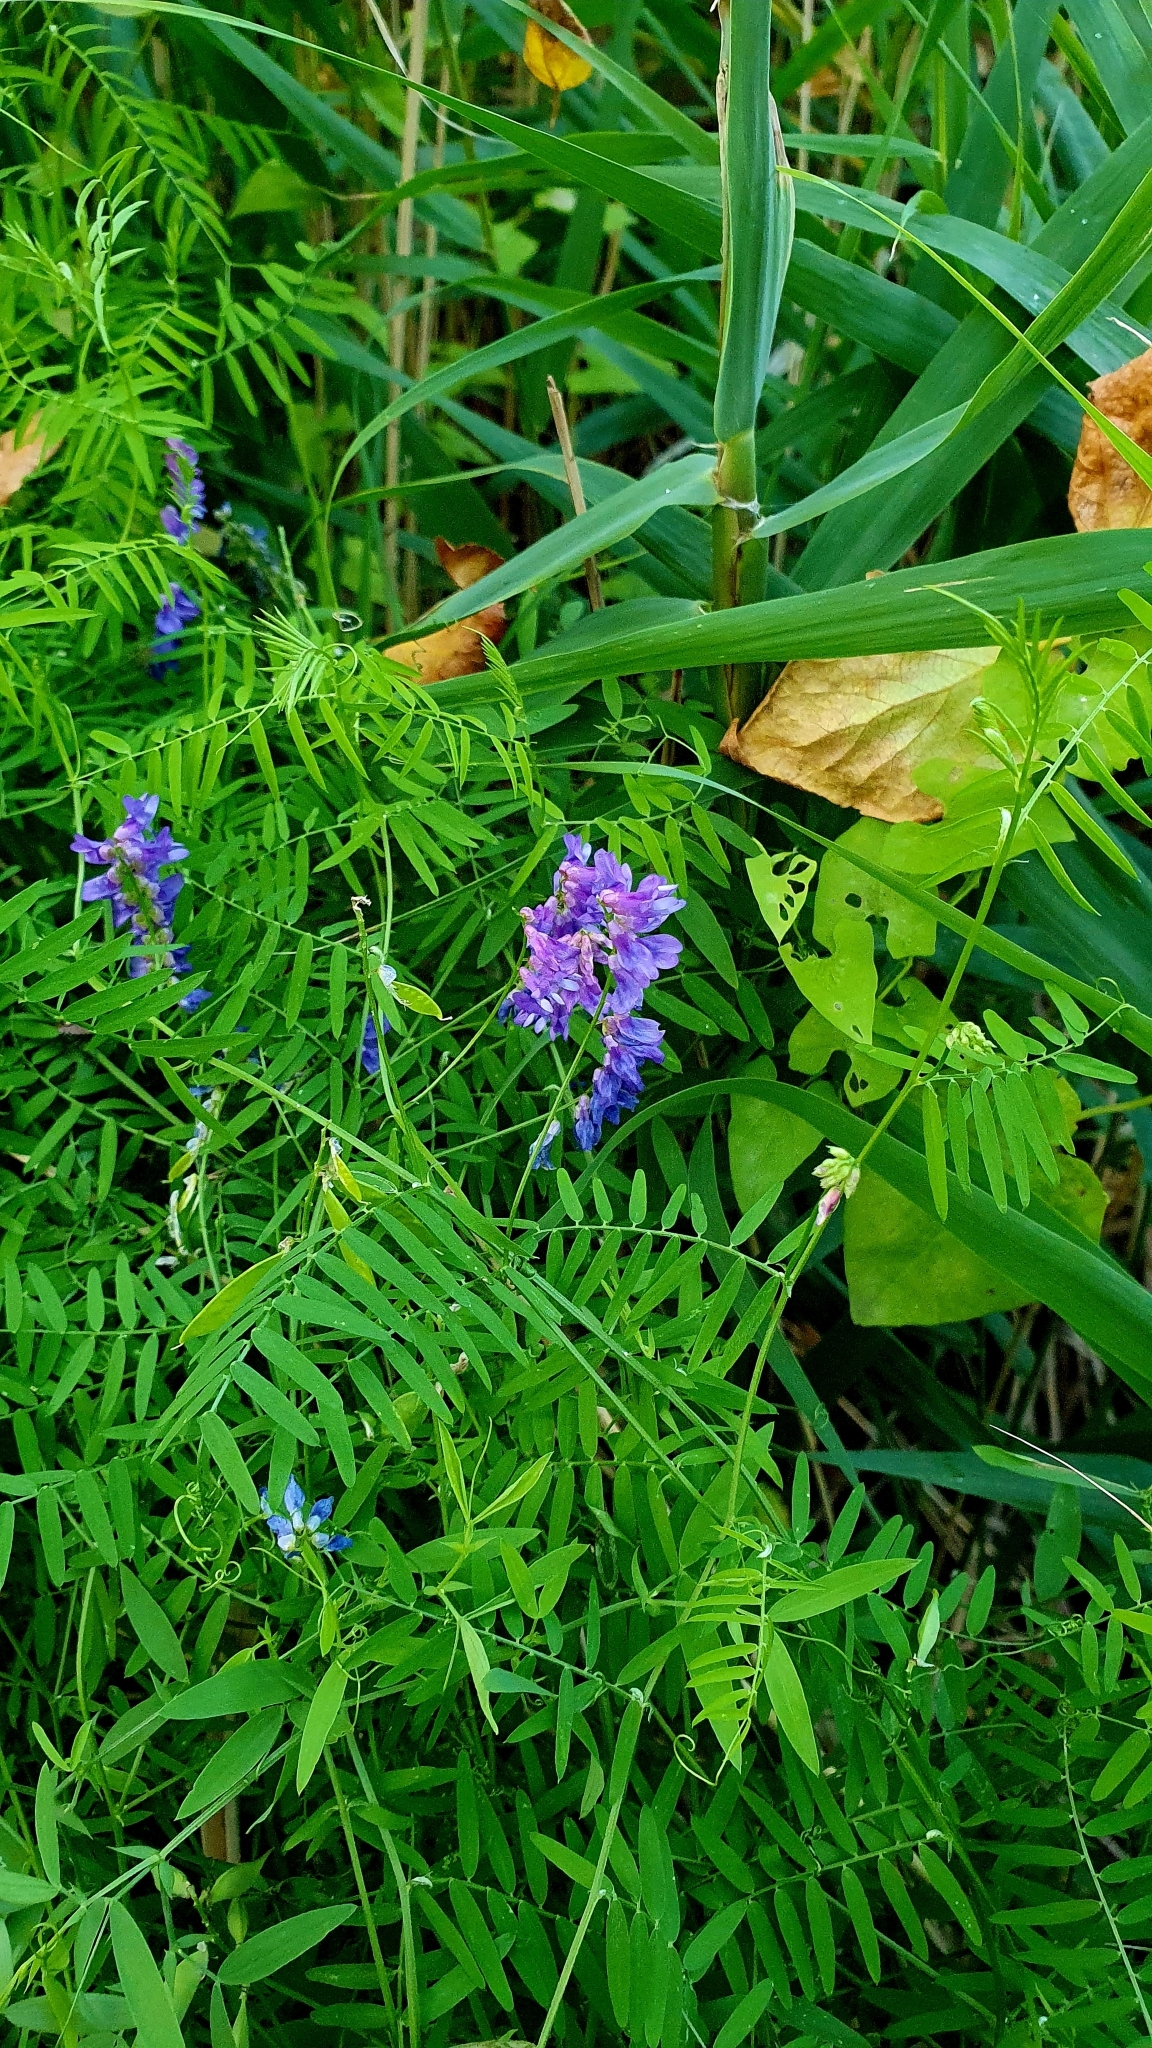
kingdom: Plantae
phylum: Tracheophyta
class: Magnoliopsida
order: Fabales
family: Fabaceae
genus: Vicia
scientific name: Vicia cracca
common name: Bird vetch
